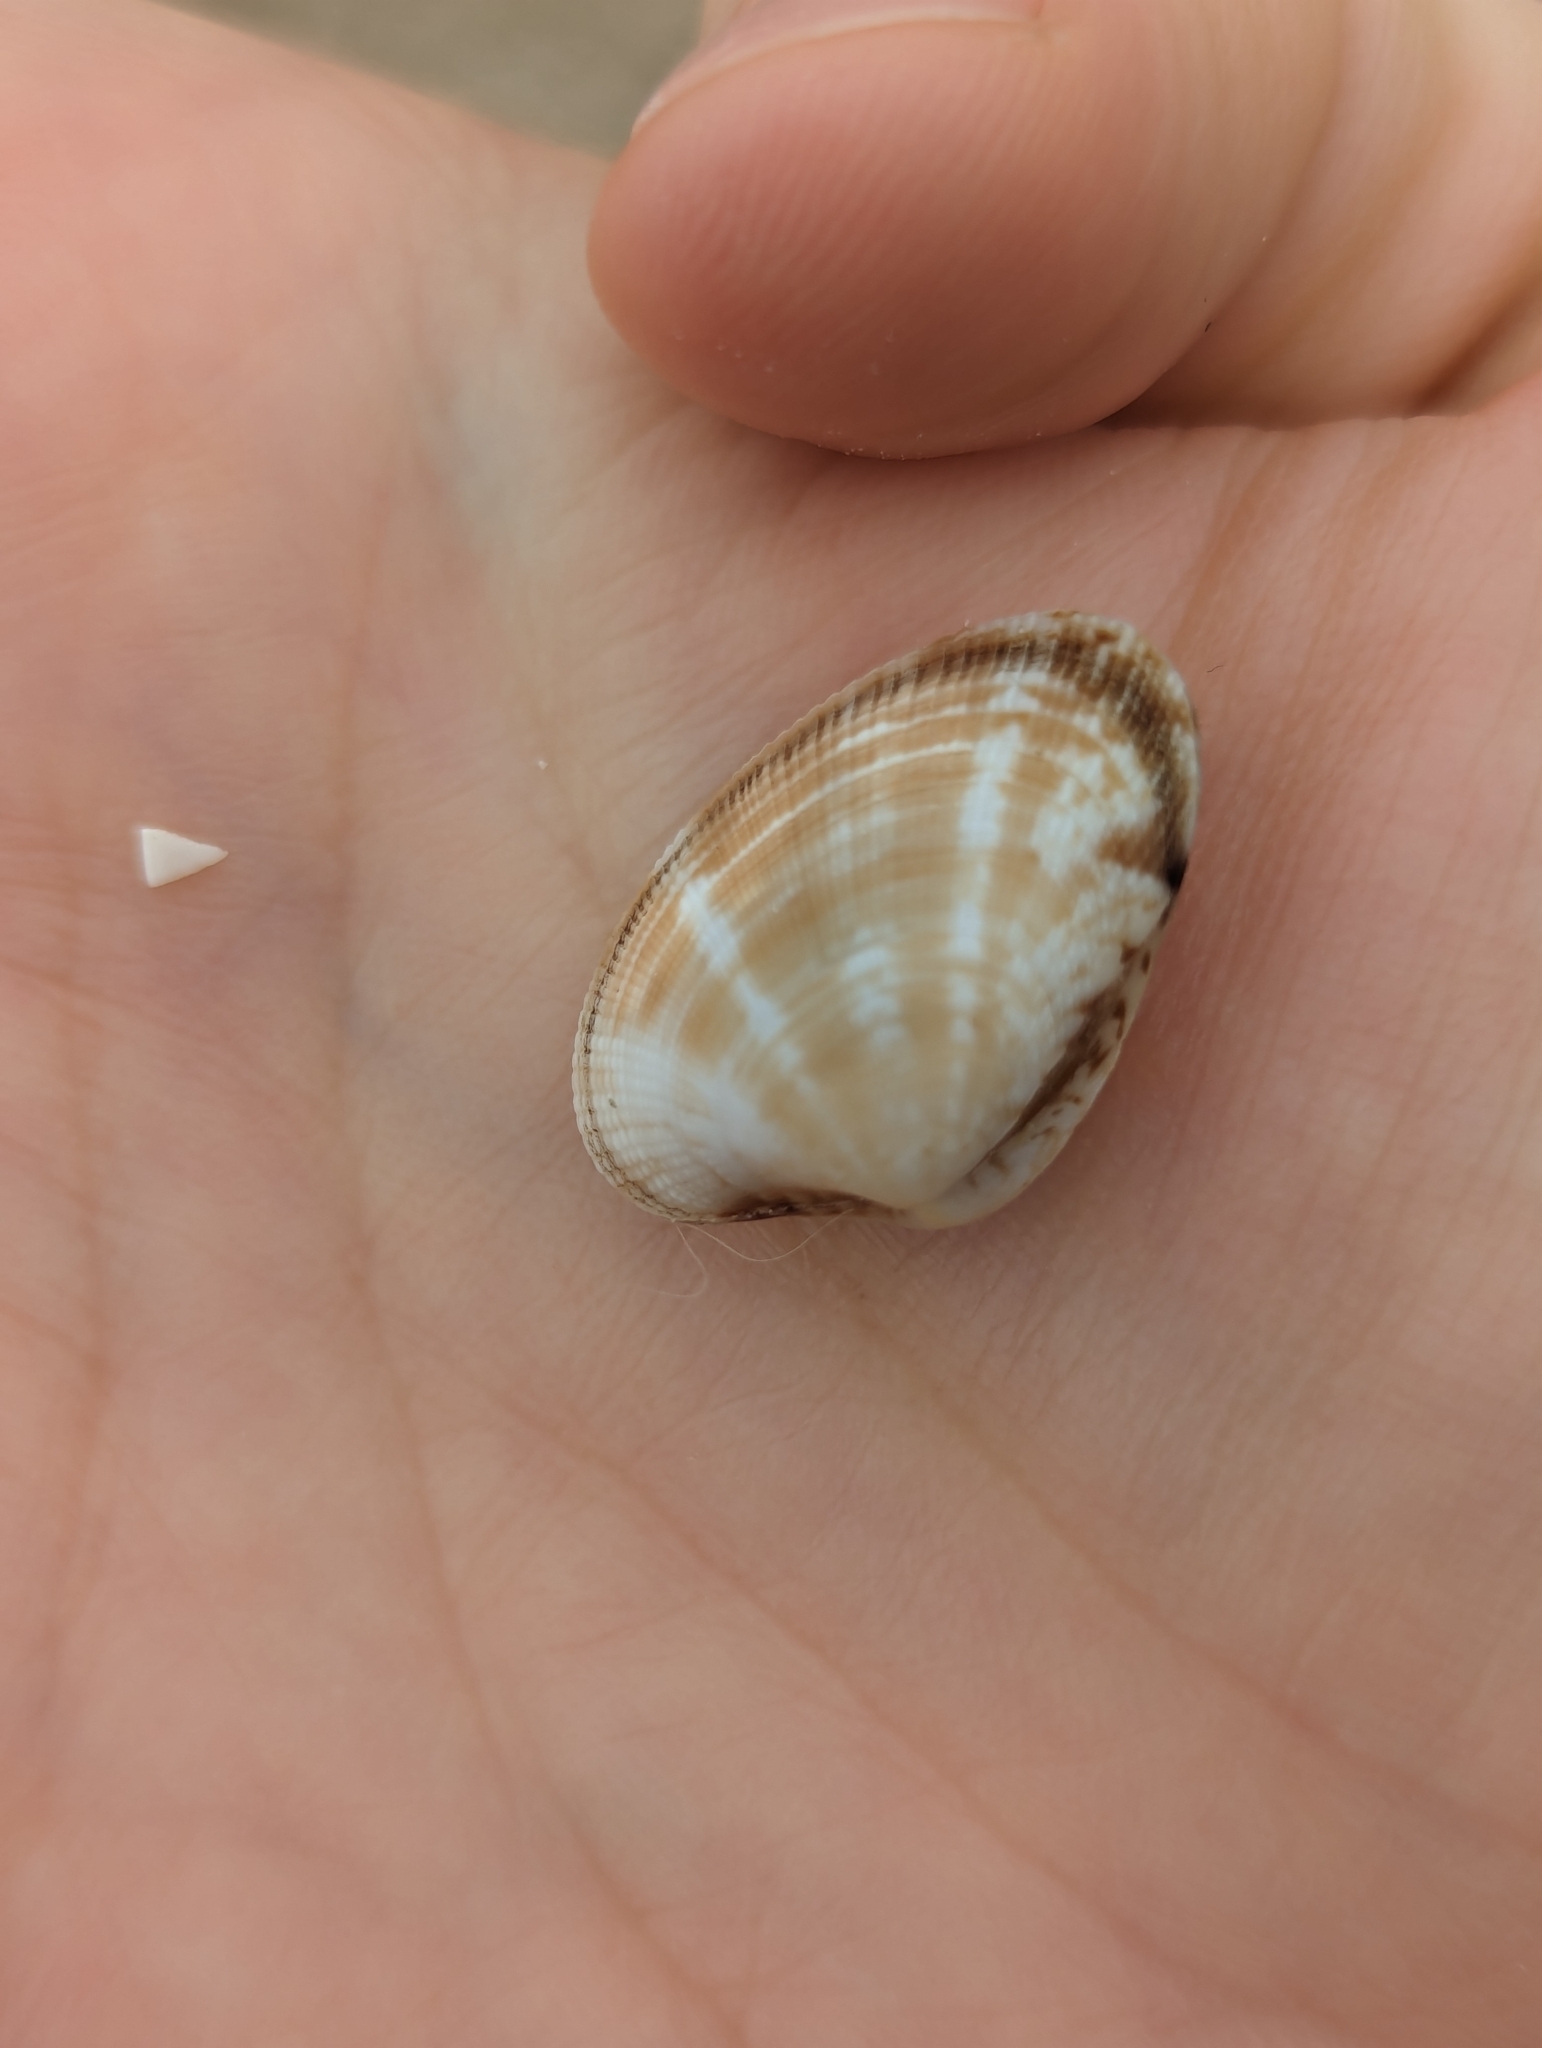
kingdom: Animalia
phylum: Mollusca
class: Bivalvia
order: Venerida
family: Veneridae
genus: Ruditapes
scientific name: Ruditapes philippinarum
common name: Manila clam
